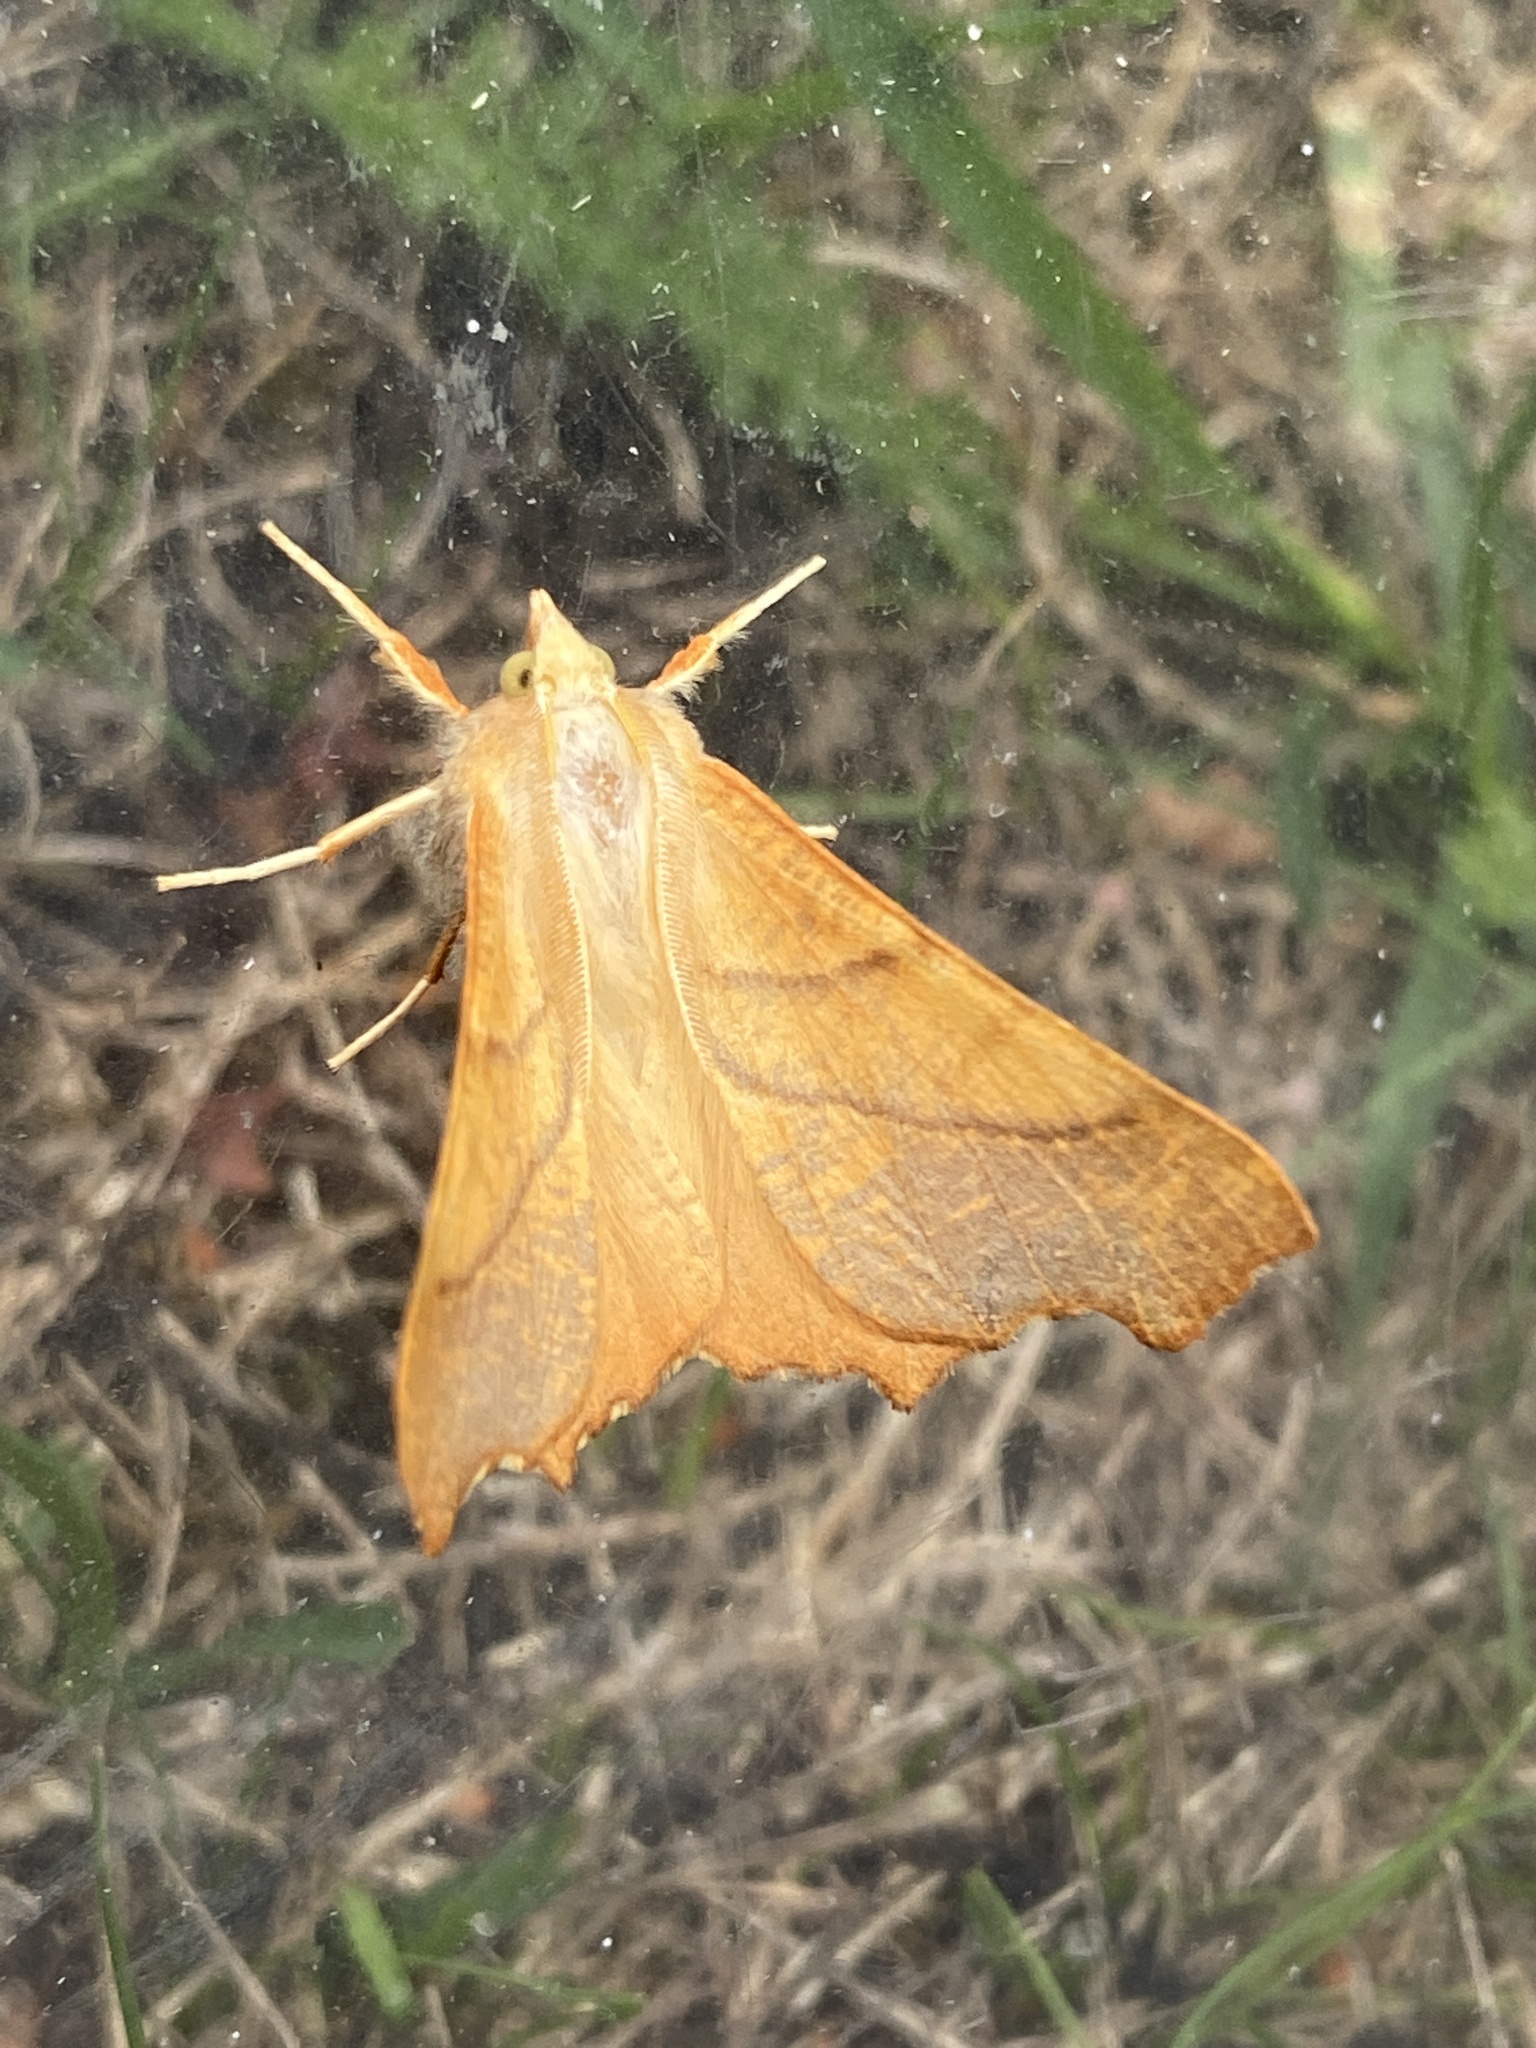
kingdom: Animalia
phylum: Arthropoda
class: Insecta
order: Lepidoptera
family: Geometridae
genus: Ennomos
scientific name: Ennomos fuscantaria
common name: Dusky thorn
